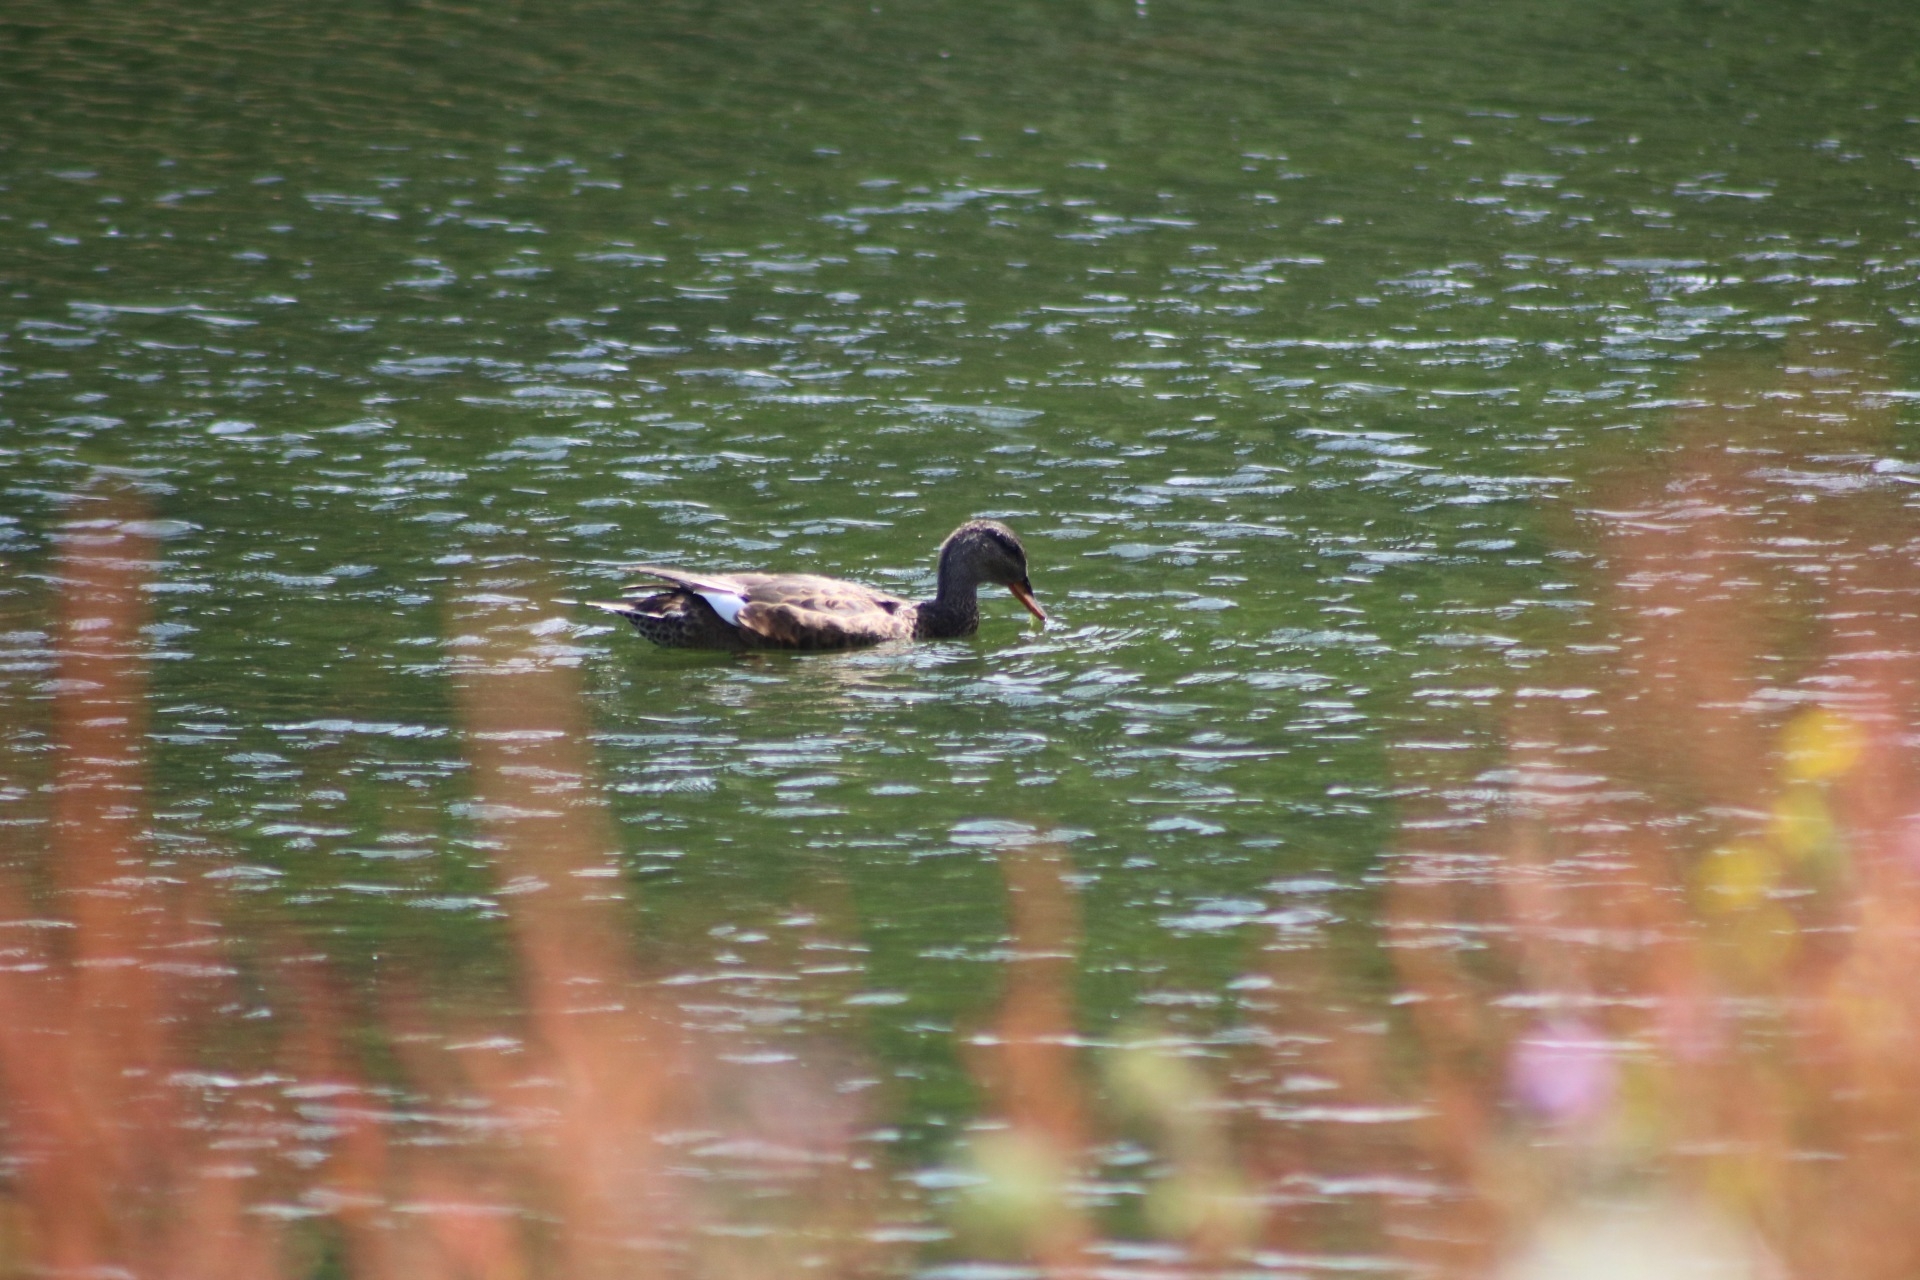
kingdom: Animalia
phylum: Chordata
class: Aves
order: Anseriformes
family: Anatidae
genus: Mareca
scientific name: Mareca strepera
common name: Gadwall
